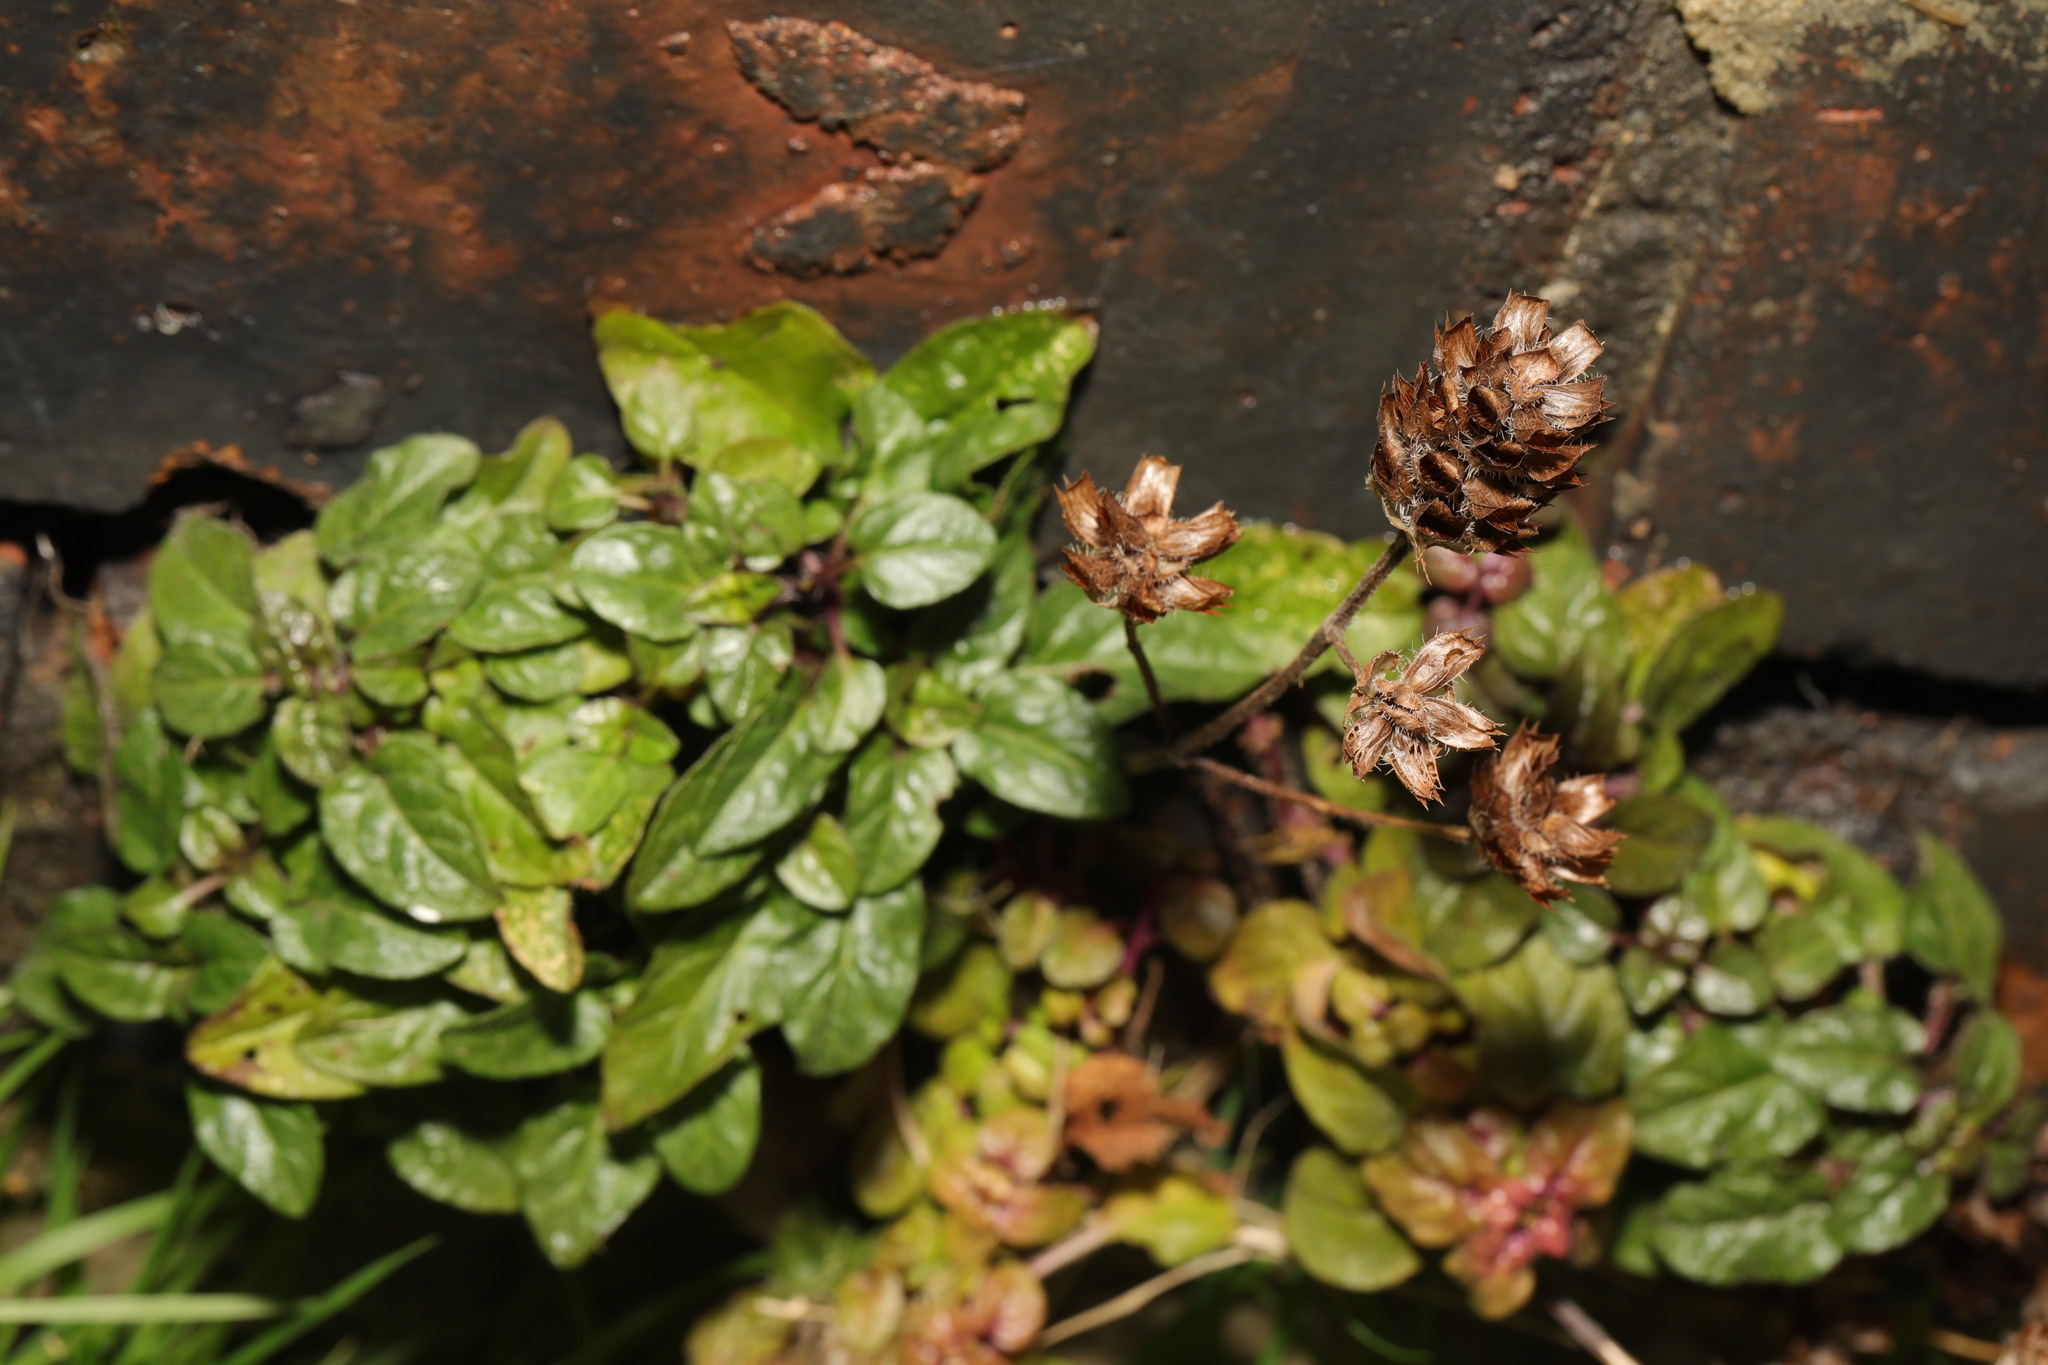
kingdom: Plantae
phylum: Tracheophyta
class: Magnoliopsida
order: Lamiales
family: Lamiaceae
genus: Prunella
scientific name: Prunella vulgaris
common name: Heal-all
